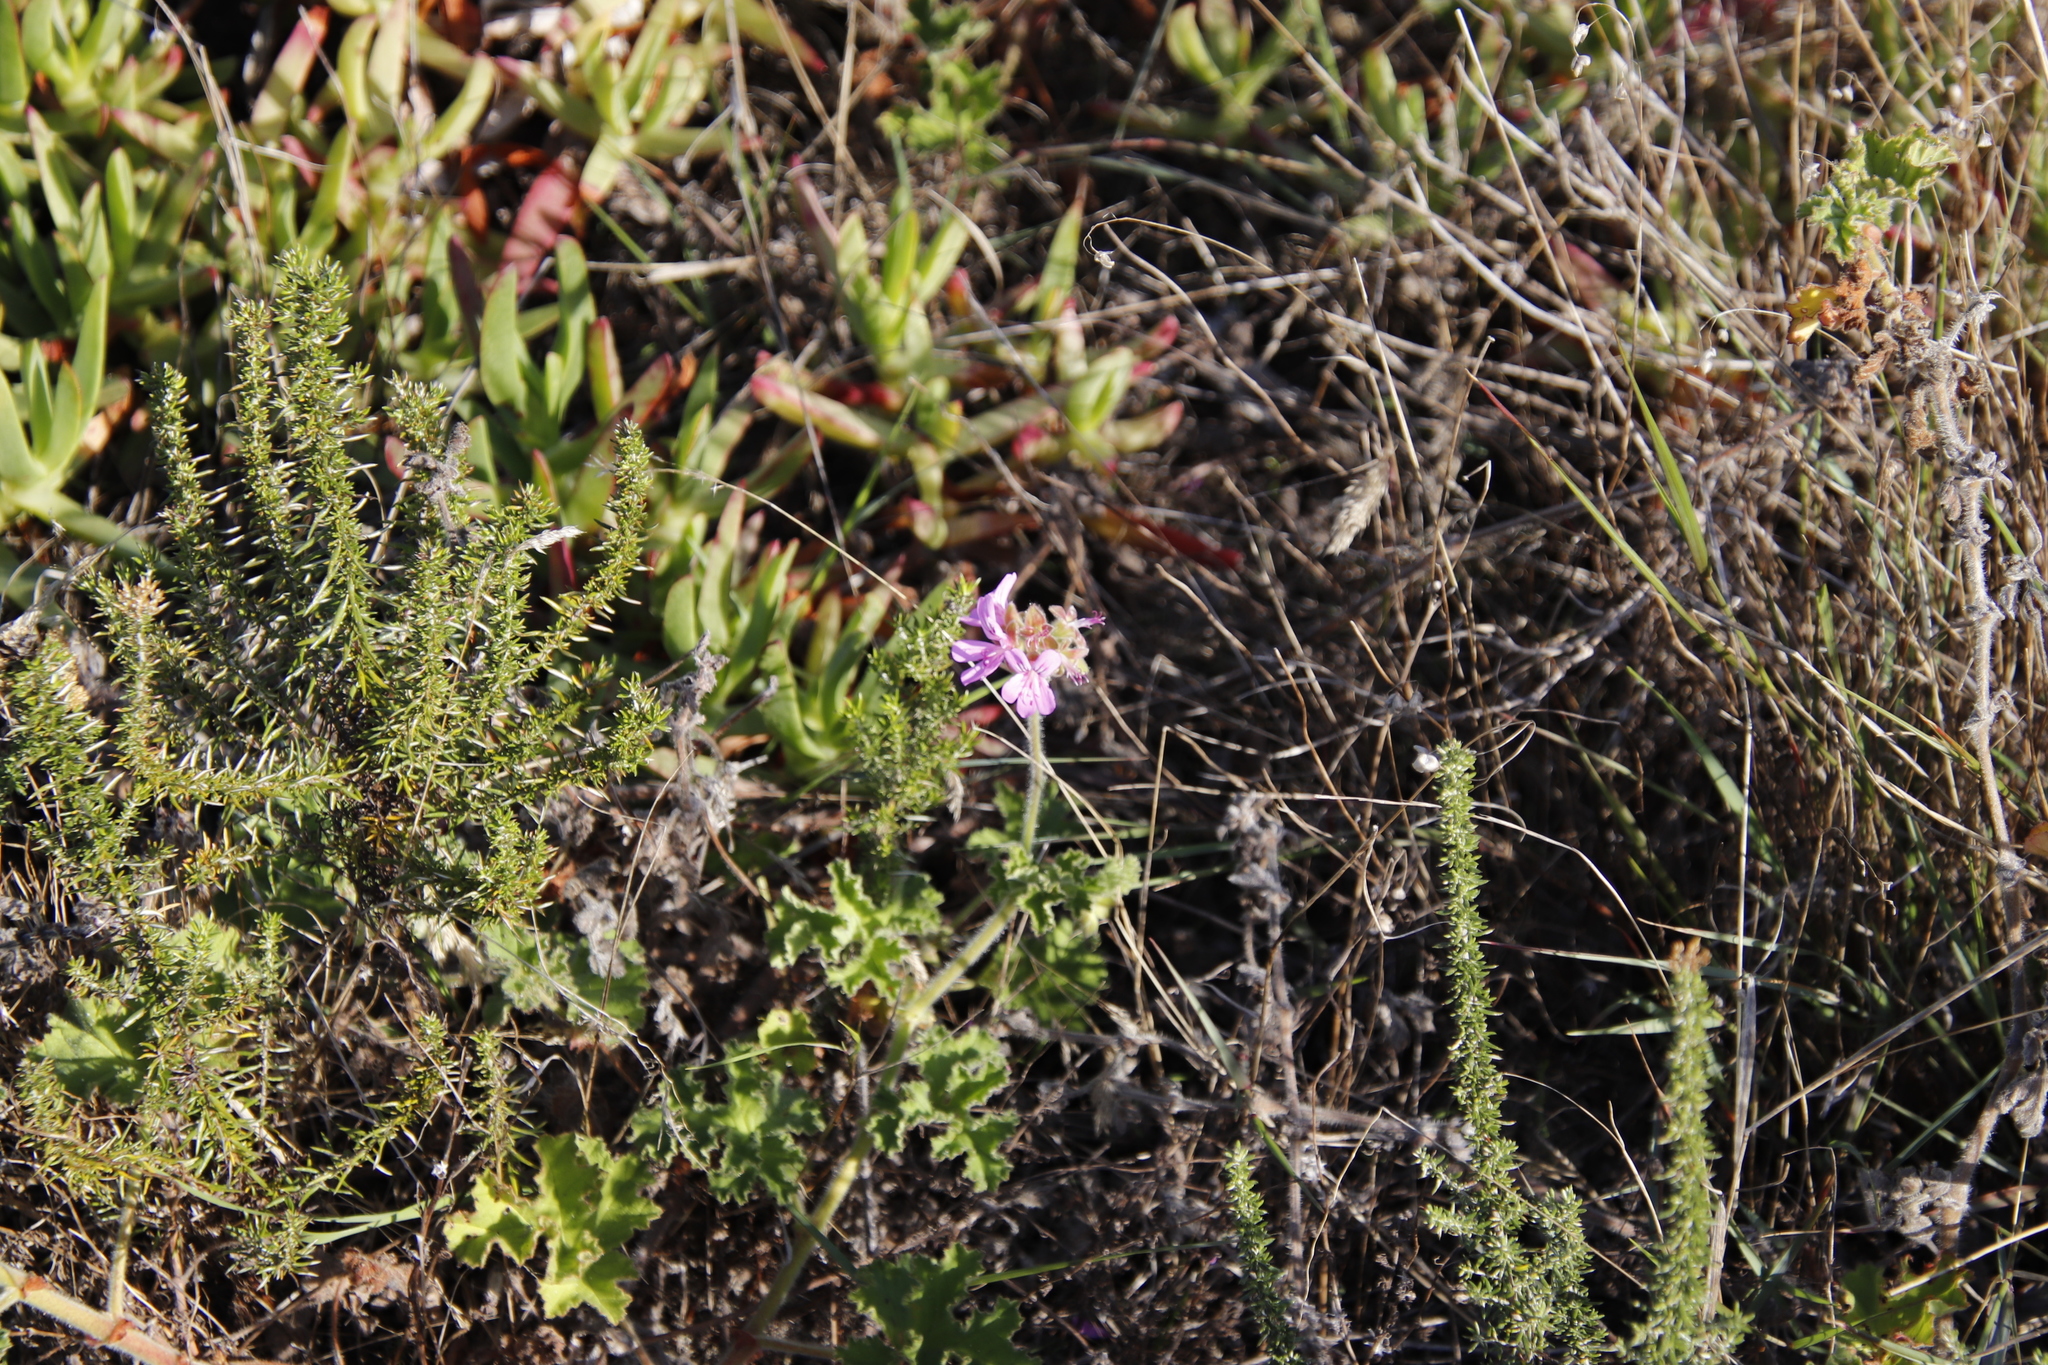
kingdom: Plantae
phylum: Tracheophyta
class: Magnoliopsida
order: Geraniales
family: Geraniaceae
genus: Pelargonium
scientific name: Pelargonium capitatum
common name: Rose scented geranium
